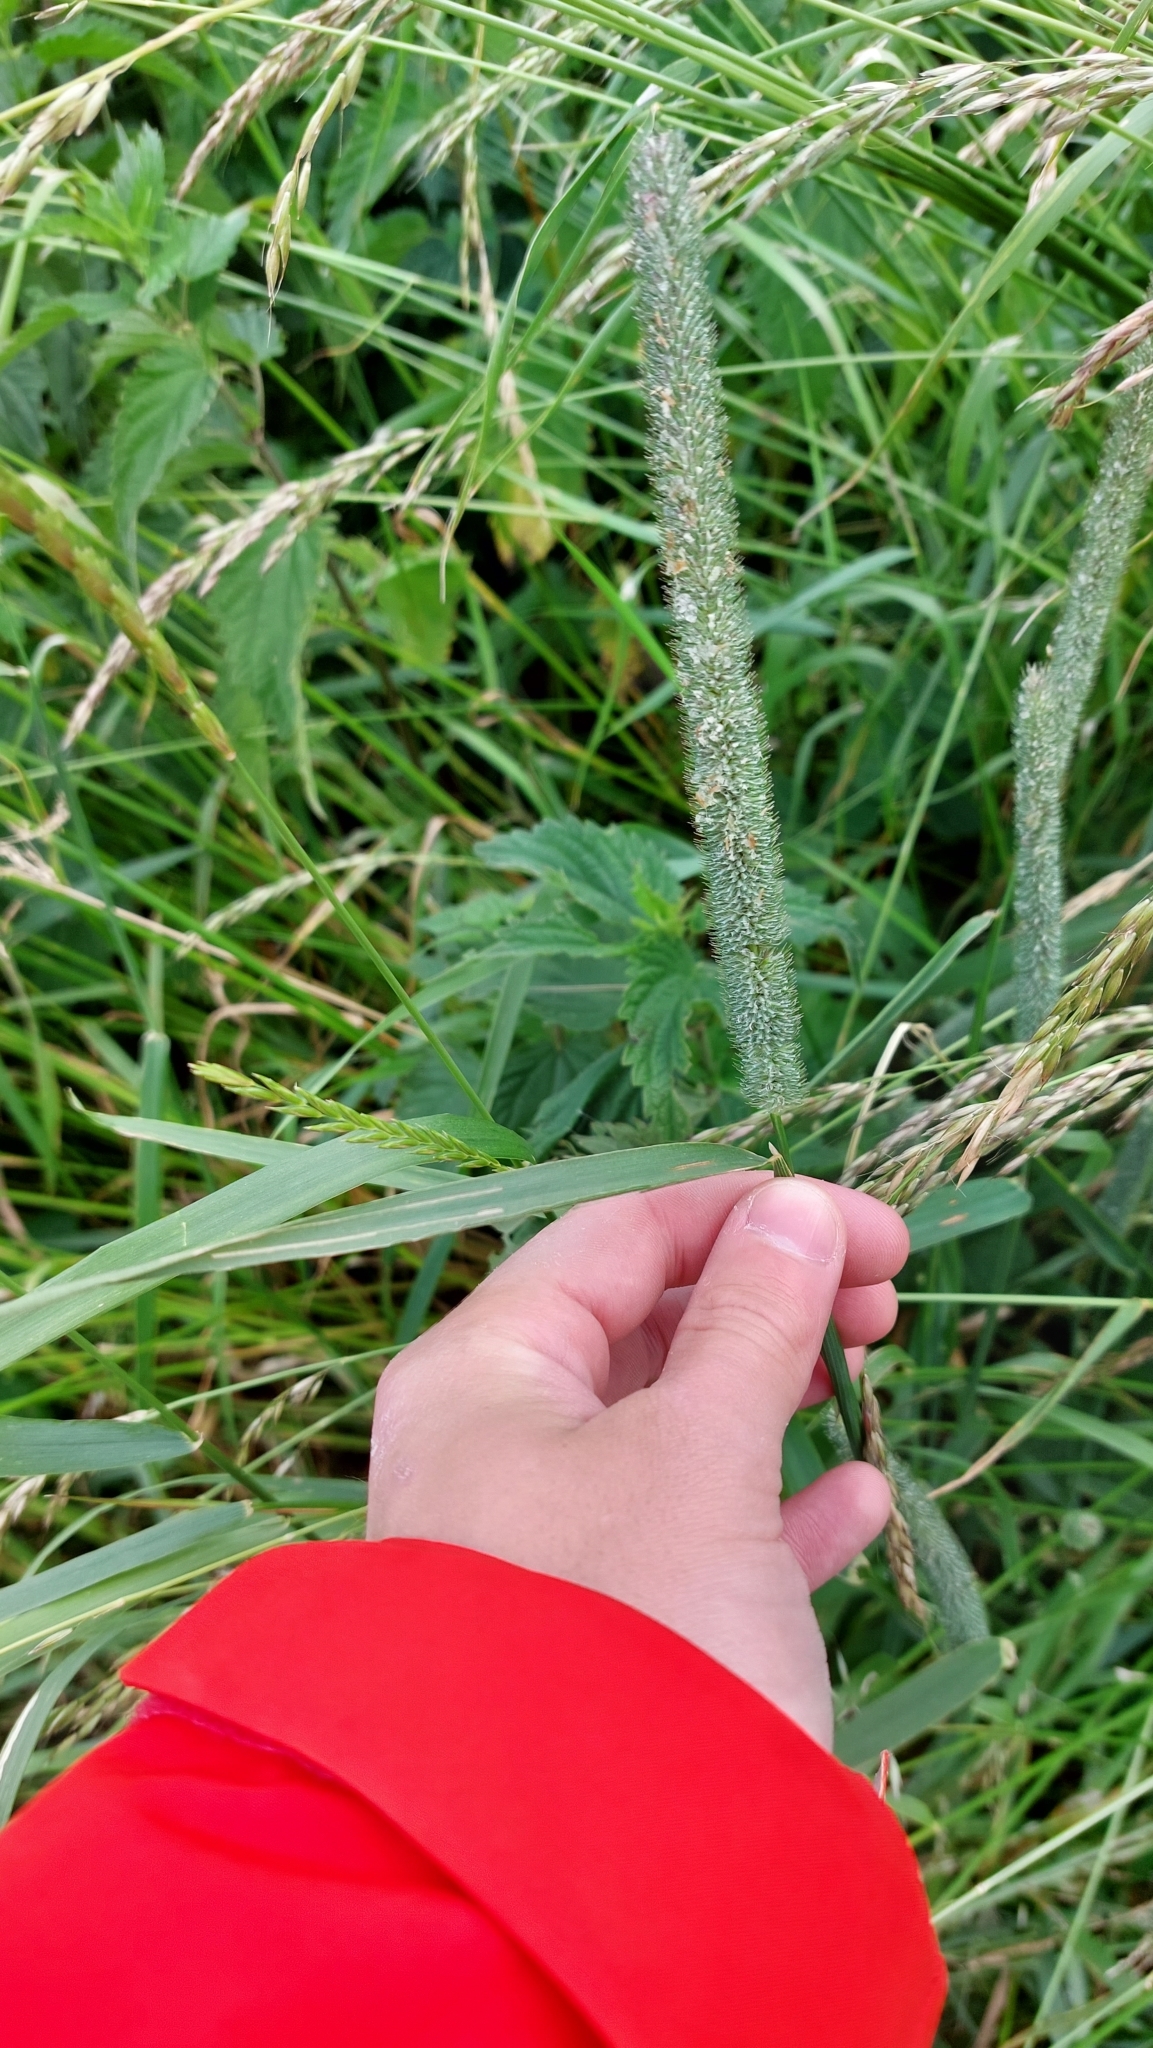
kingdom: Plantae
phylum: Tracheophyta
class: Liliopsida
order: Poales
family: Poaceae
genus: Phleum
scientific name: Phleum pratense
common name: Timothy grass
